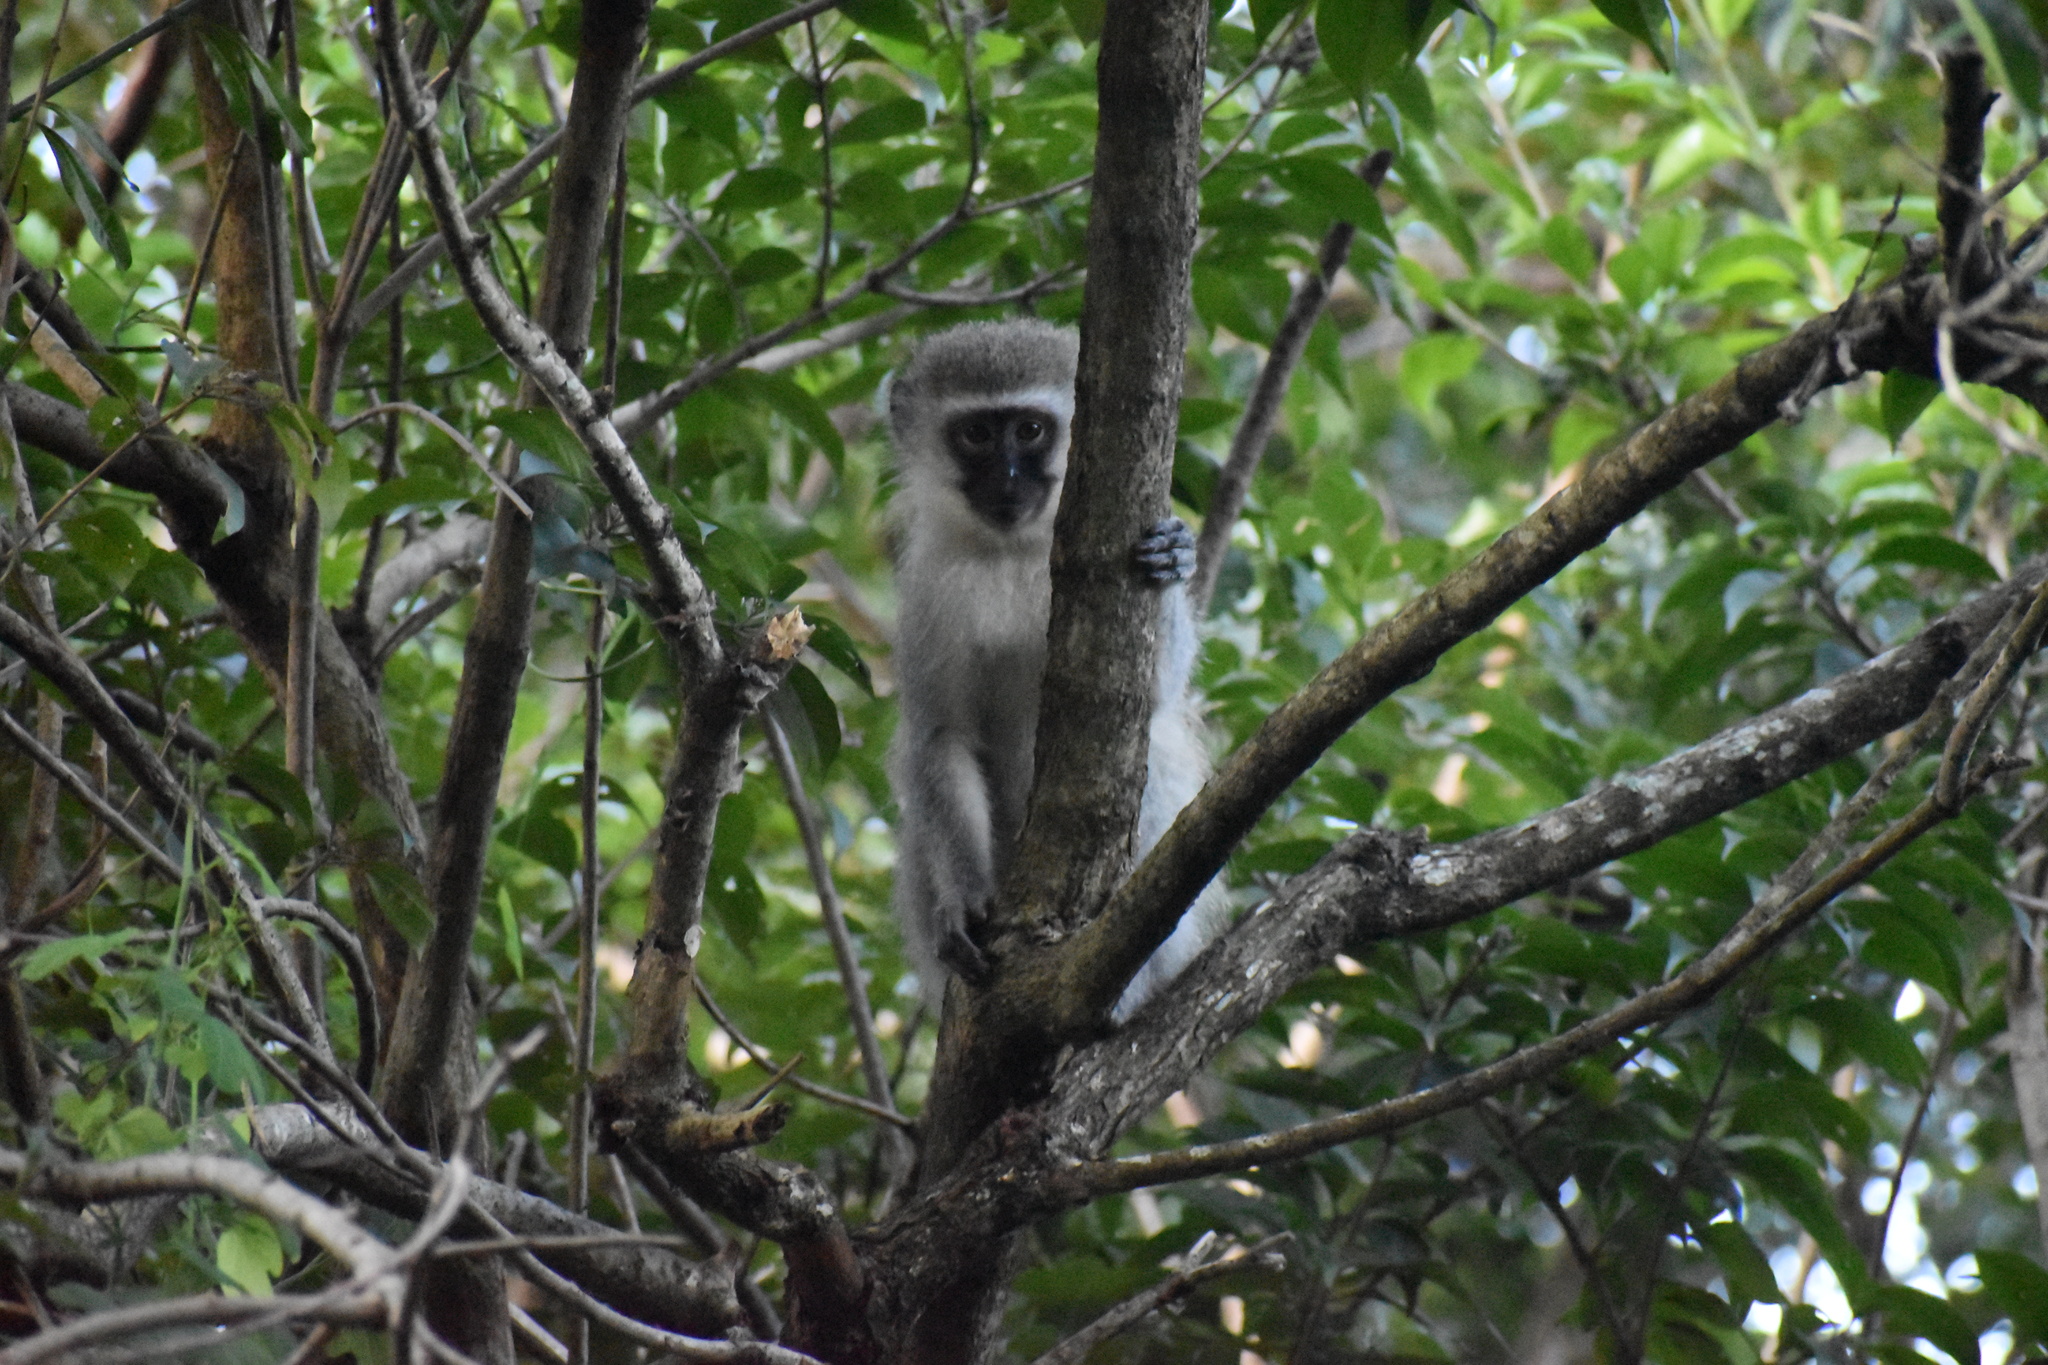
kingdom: Animalia
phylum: Chordata
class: Mammalia
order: Primates
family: Cercopithecidae
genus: Chlorocebus
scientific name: Chlorocebus pygerythrus
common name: Vervet monkey
